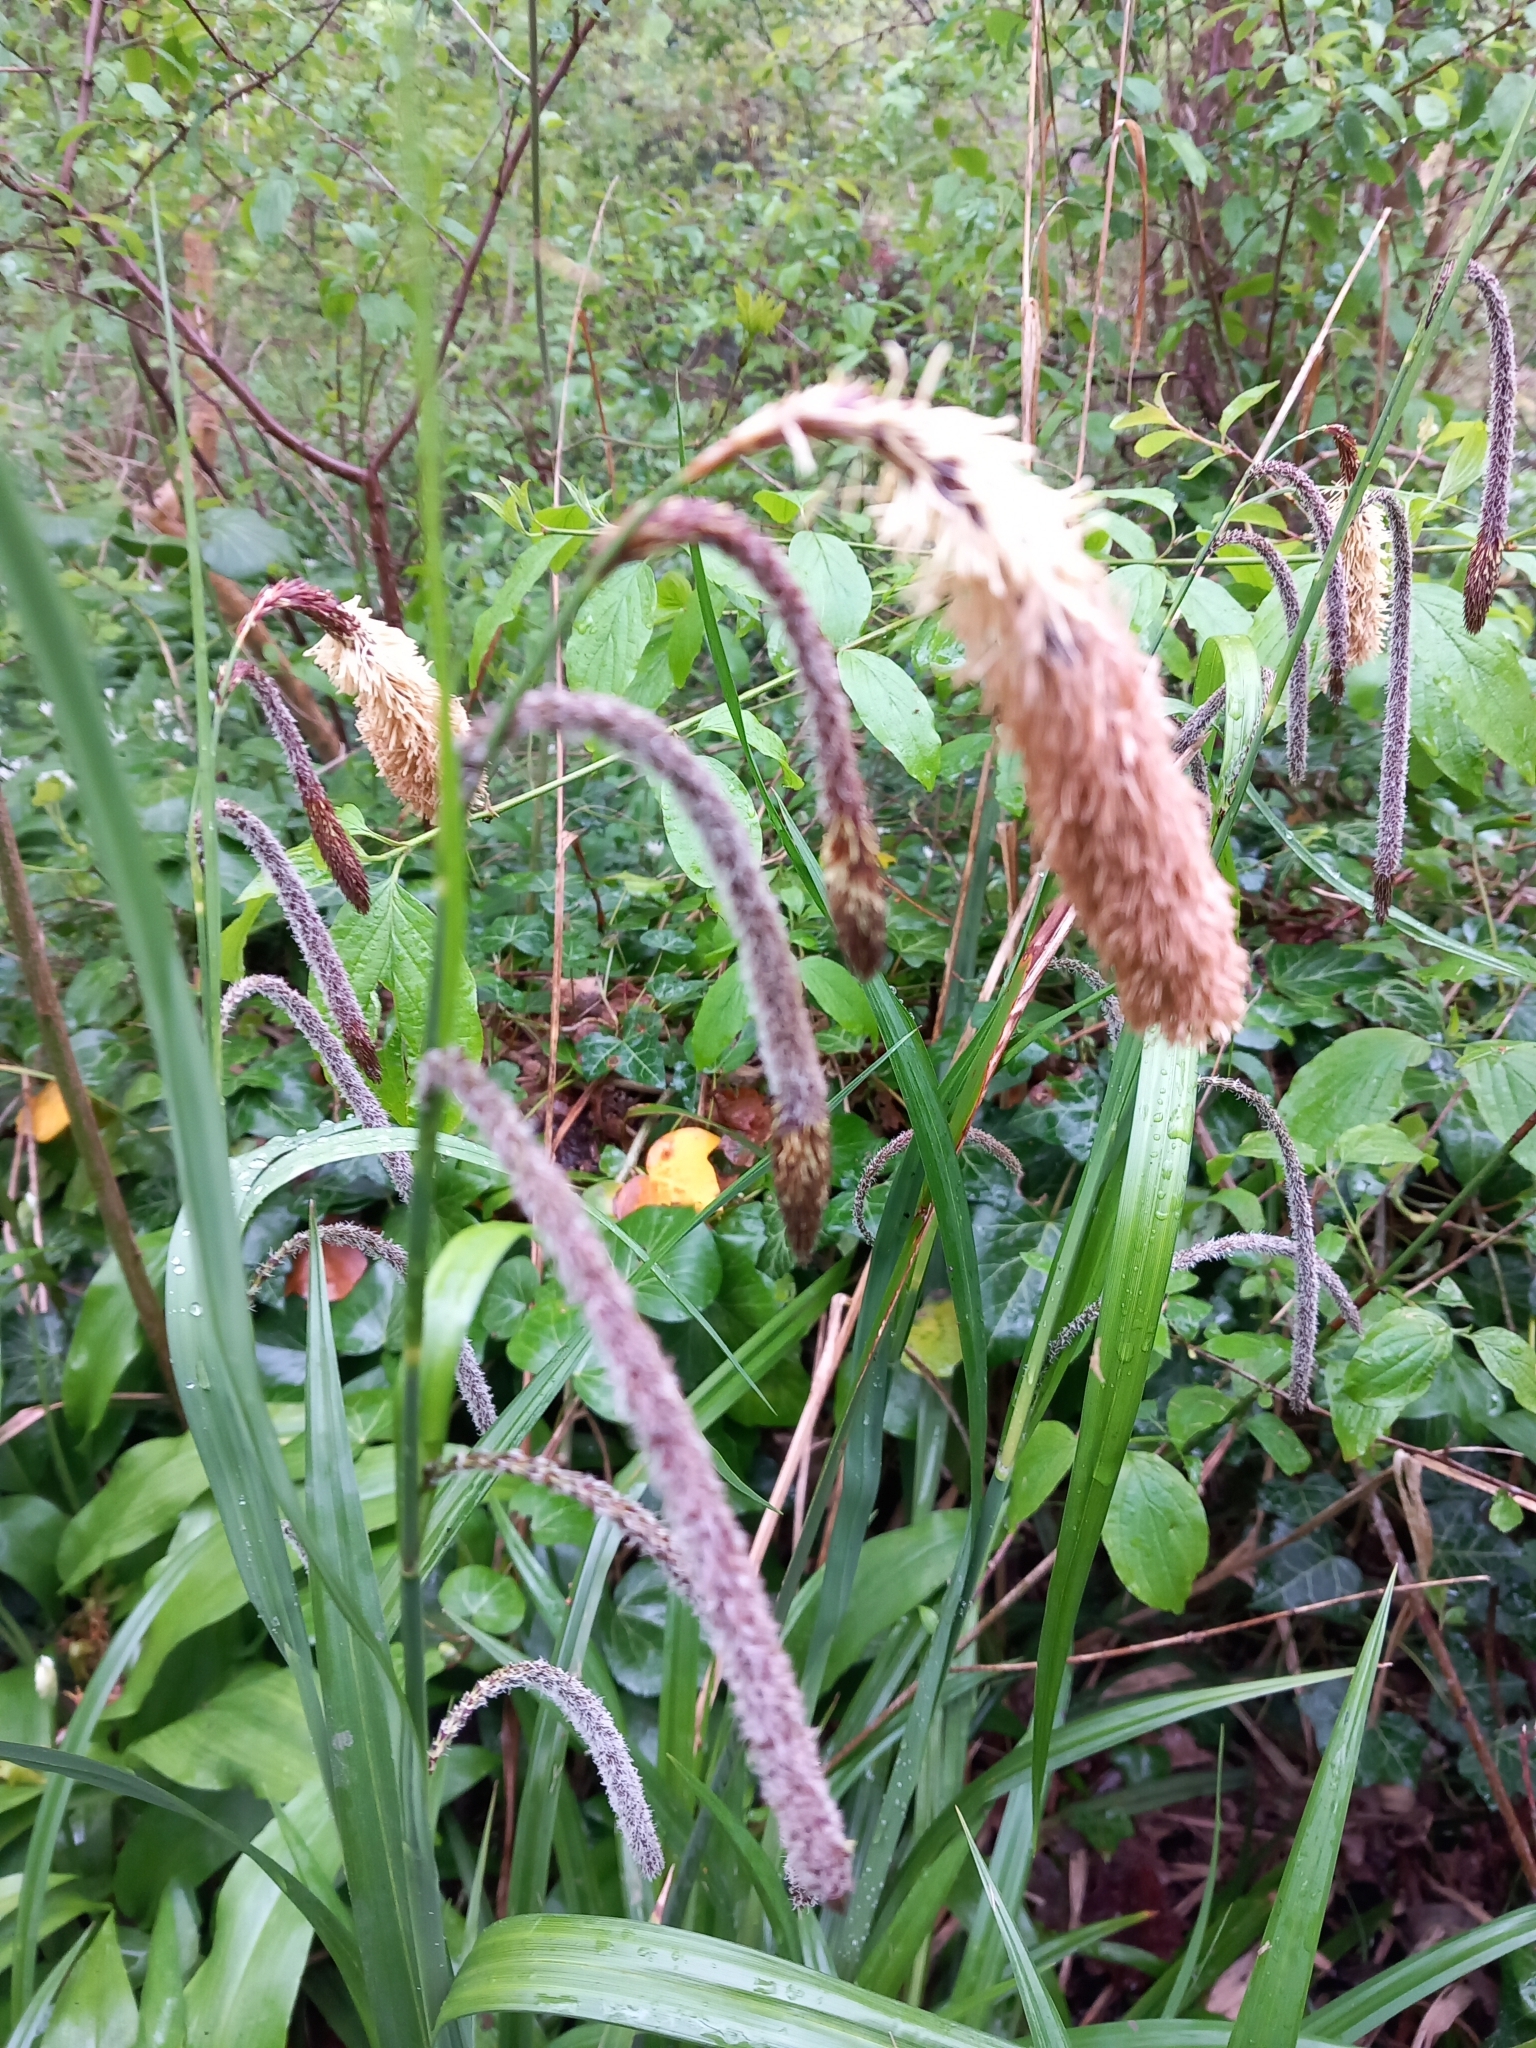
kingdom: Plantae
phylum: Tracheophyta
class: Liliopsida
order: Poales
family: Cyperaceae
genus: Carex
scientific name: Carex pendula
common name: Pendulous sedge
